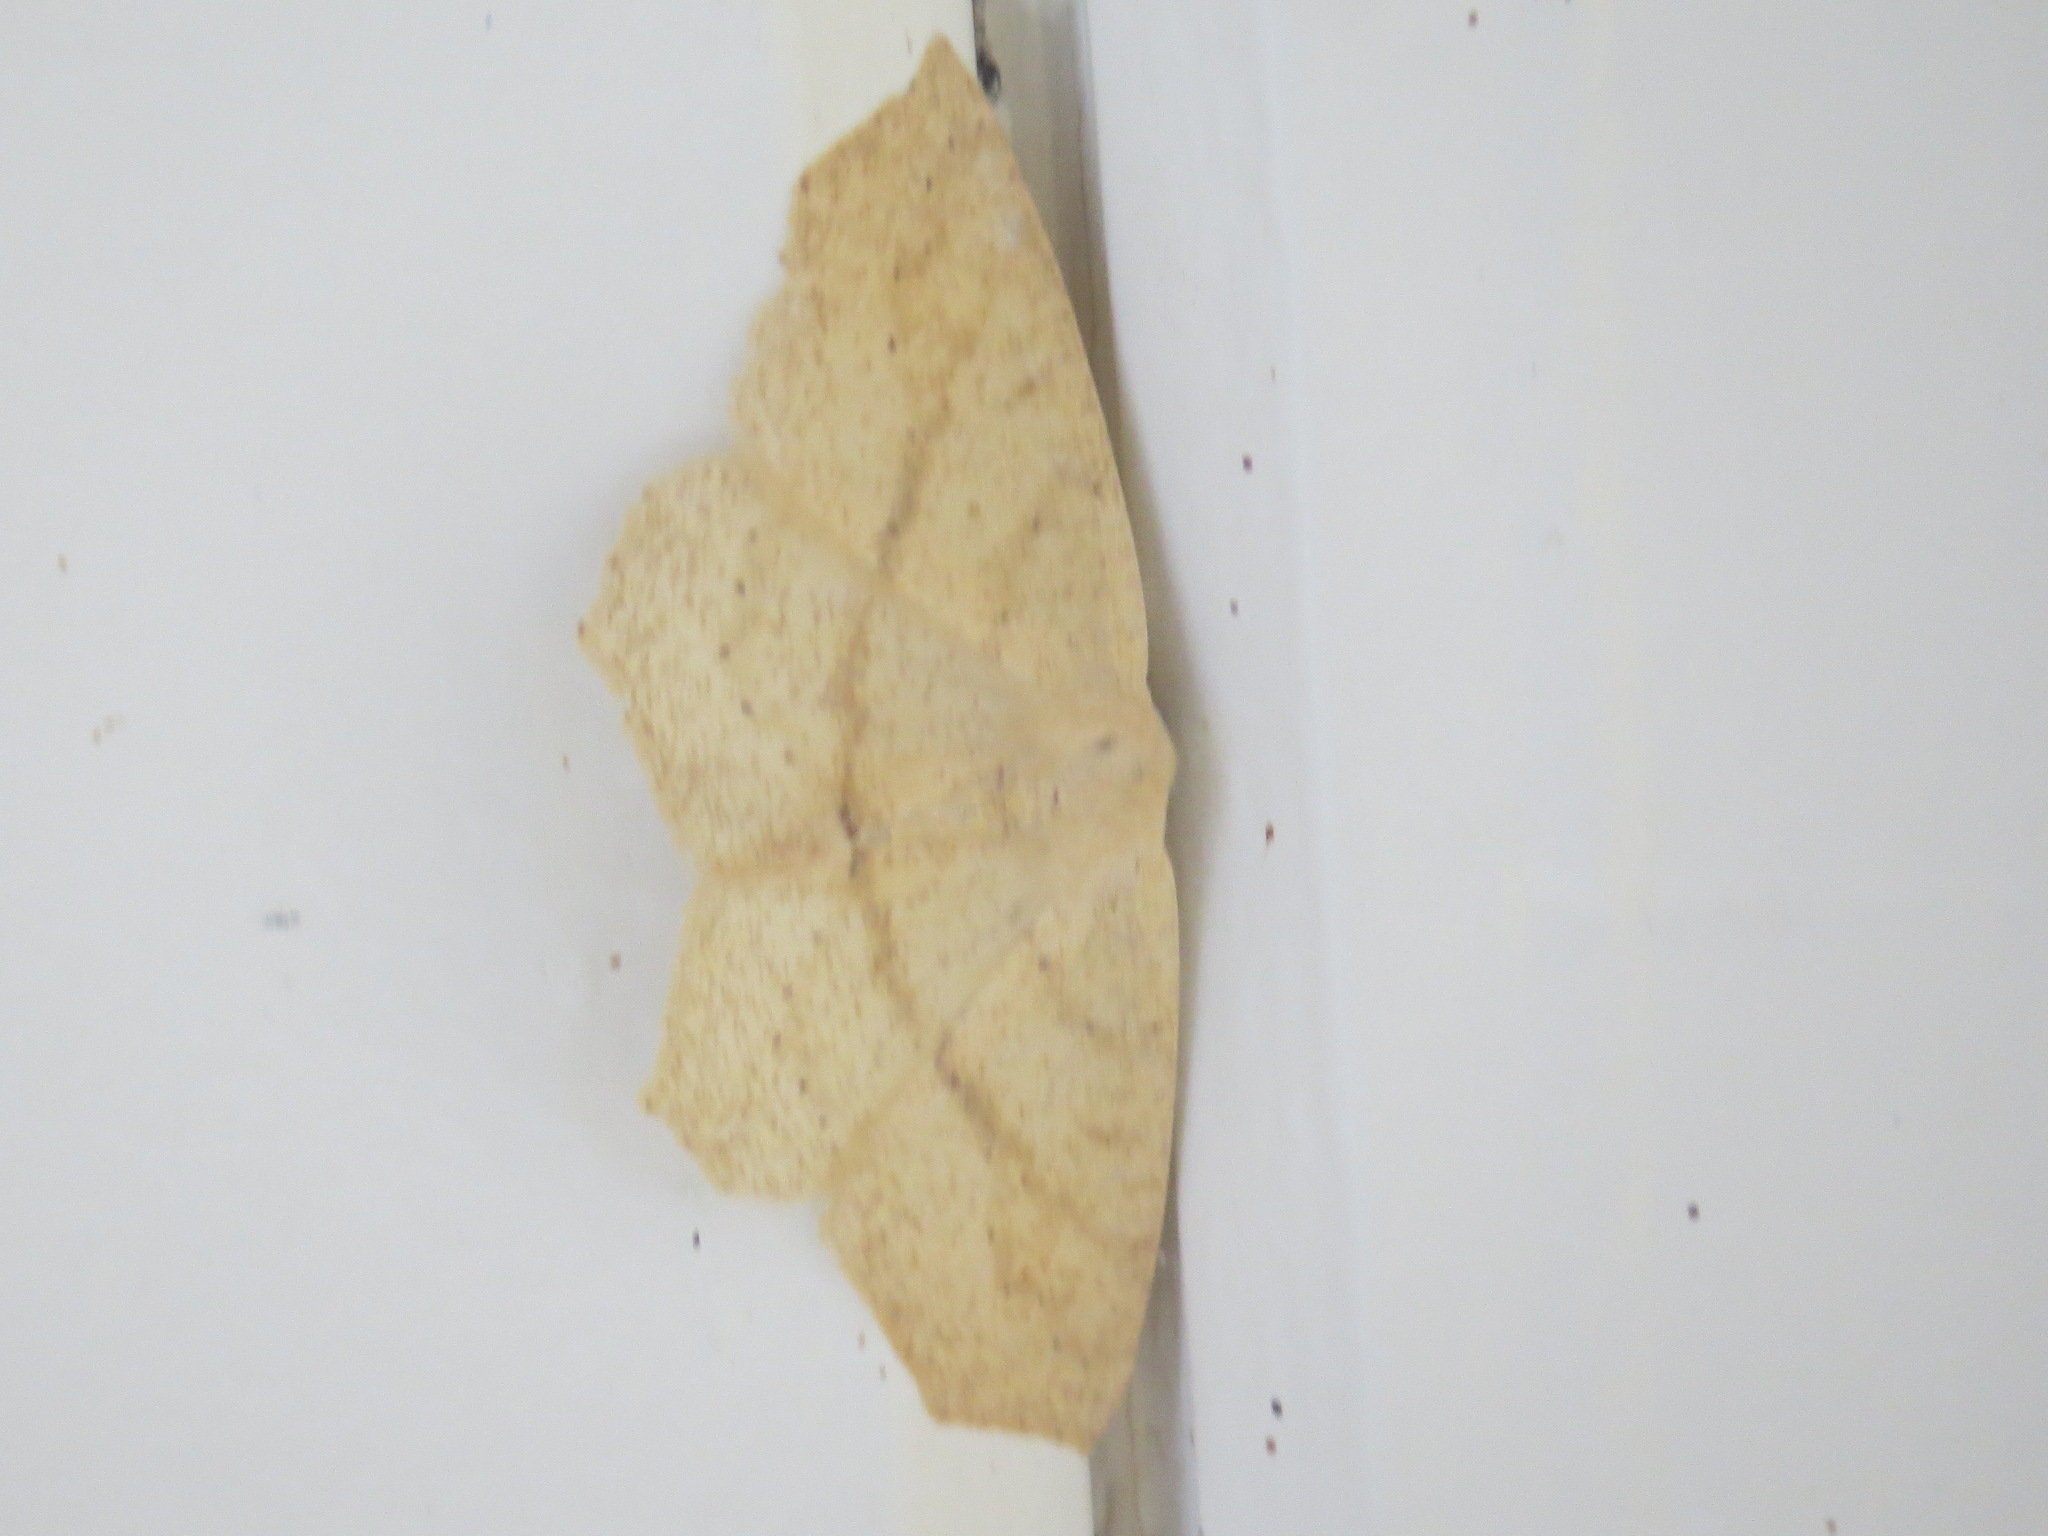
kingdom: Animalia
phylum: Arthropoda
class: Insecta
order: Lepidoptera
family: Geometridae
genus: Sabulodes
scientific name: Sabulodes aegrotata
